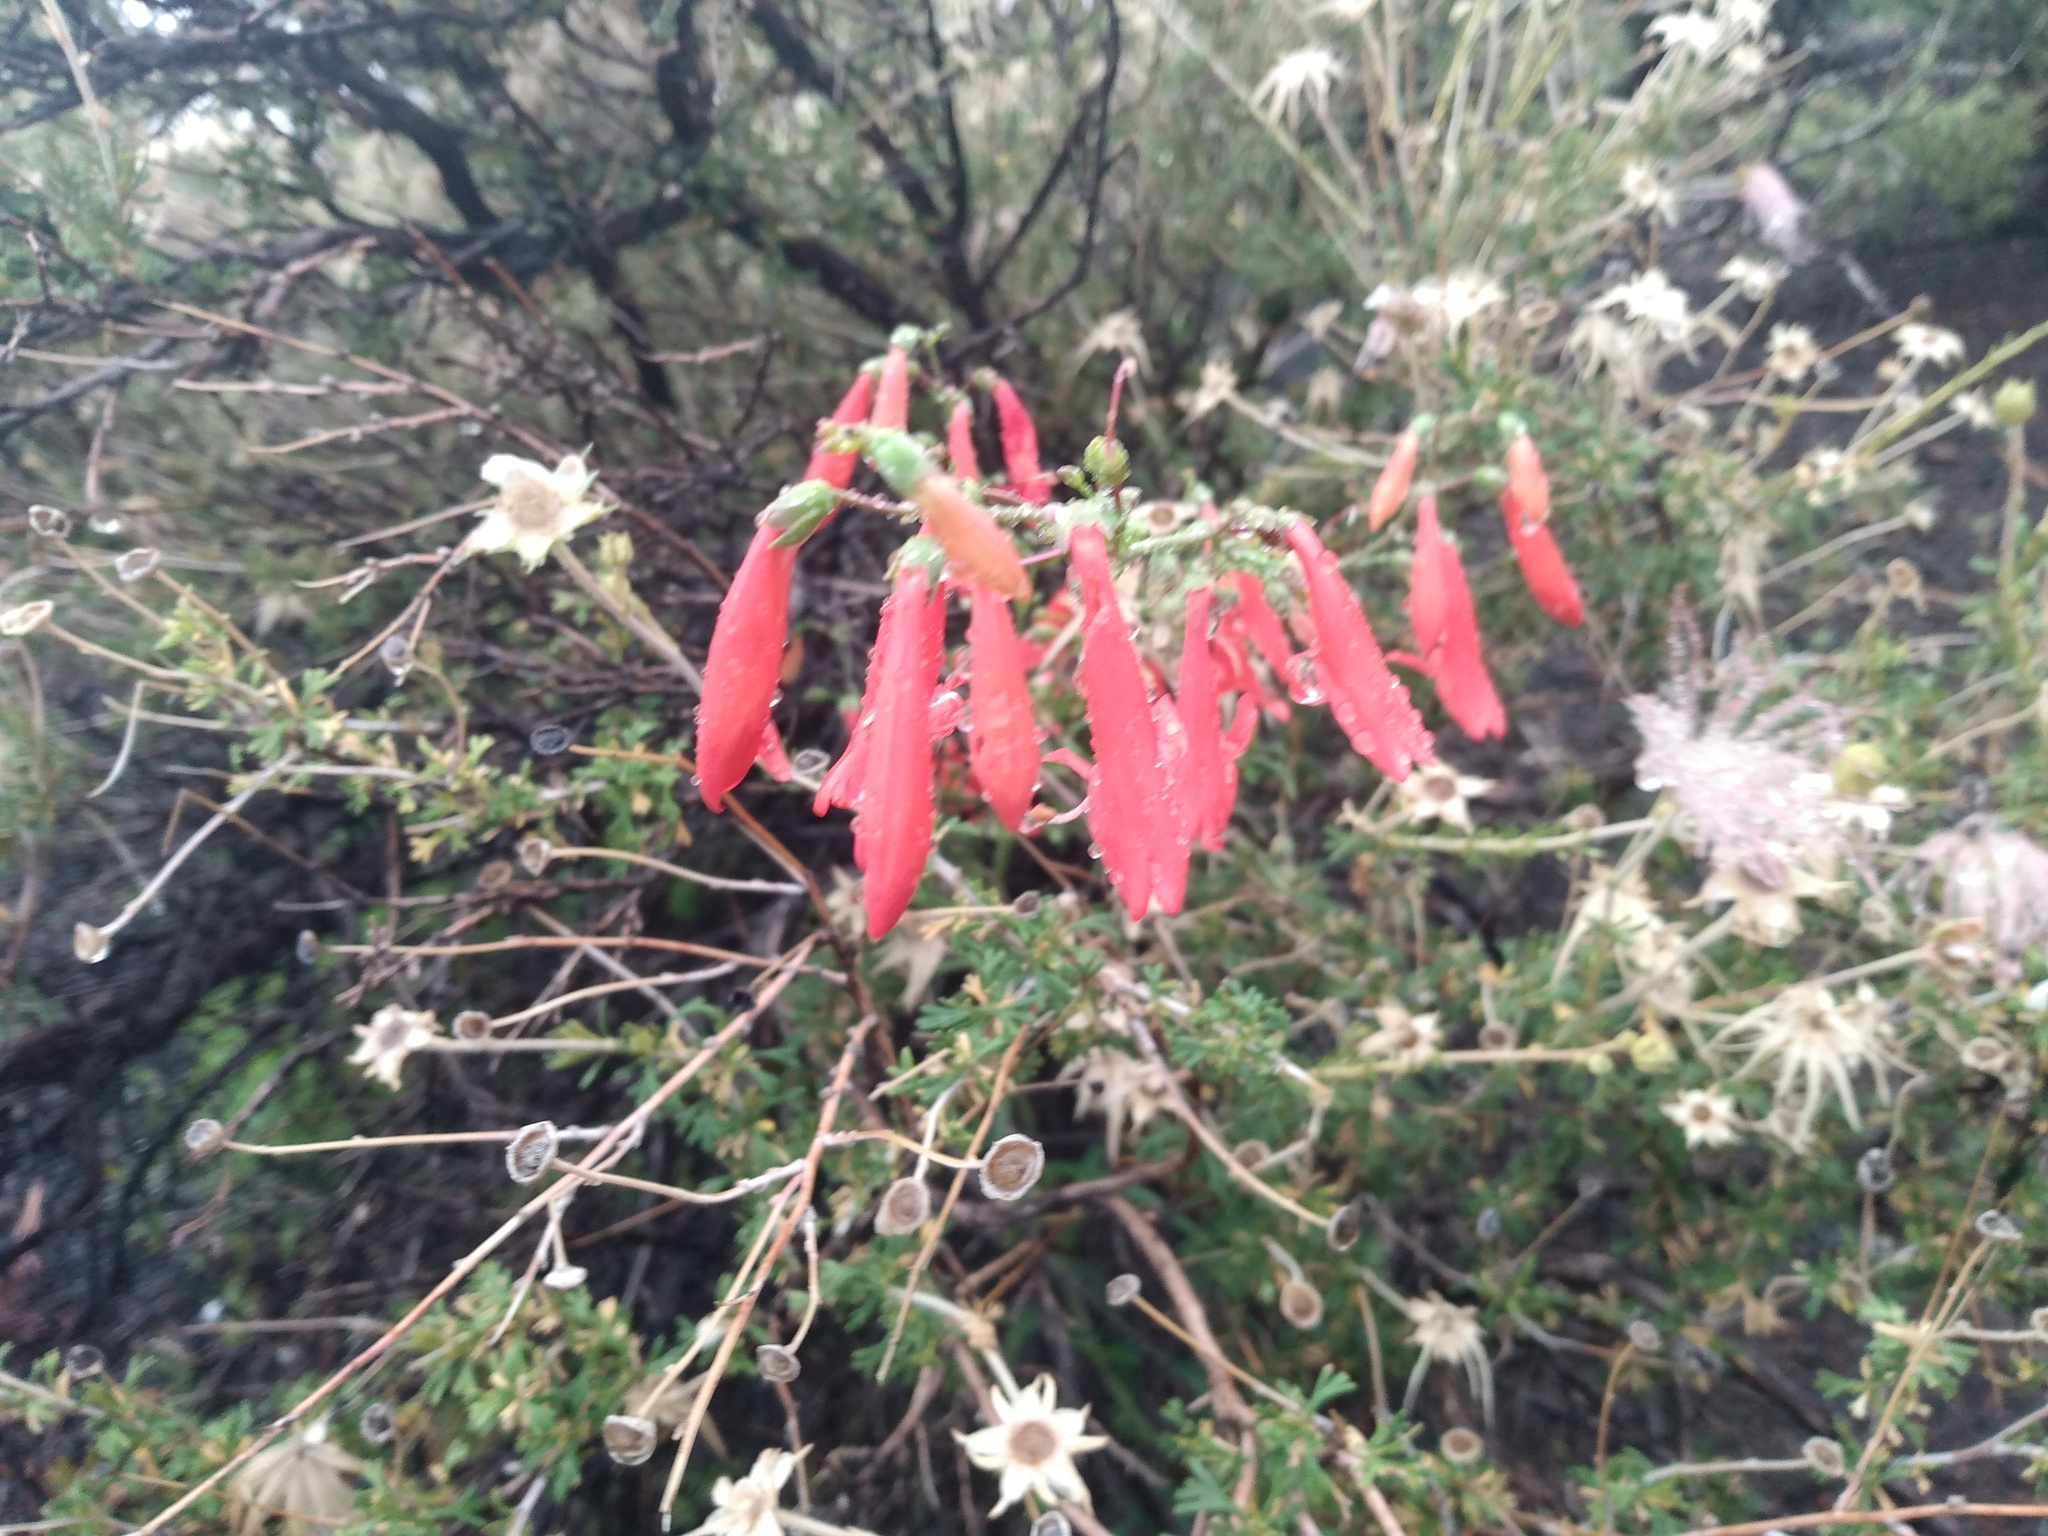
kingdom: Plantae
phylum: Tracheophyta
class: Magnoliopsida
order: Lamiales
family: Plantaginaceae
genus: Penstemon
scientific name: Penstemon barbatus
